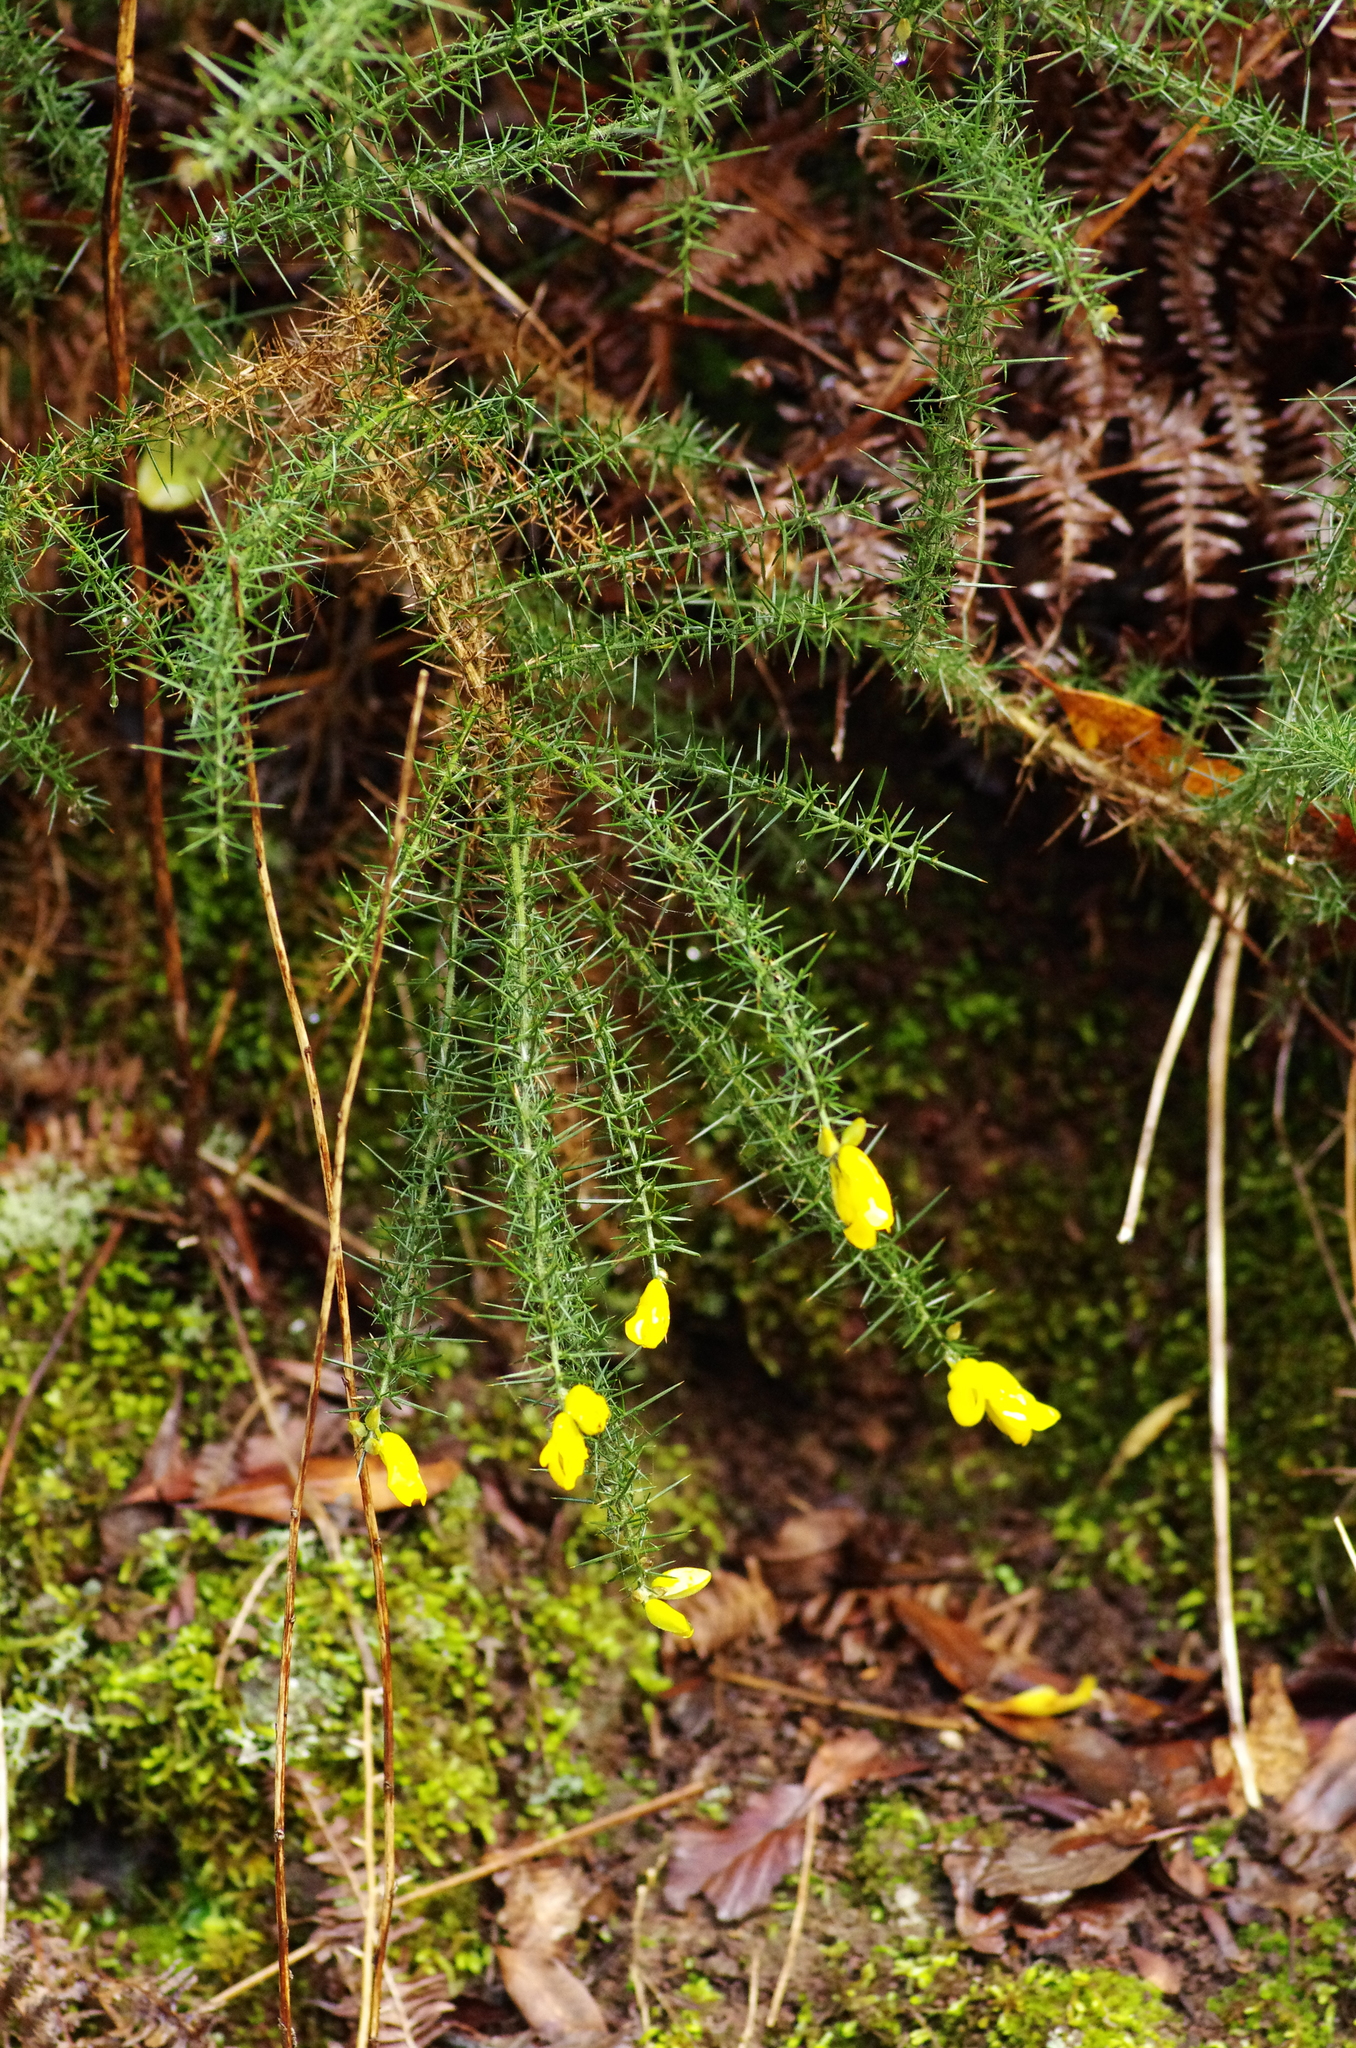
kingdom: Plantae
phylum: Tracheophyta
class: Magnoliopsida
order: Fabales
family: Fabaceae
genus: Ulex
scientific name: Ulex europaeus
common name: Common gorse
